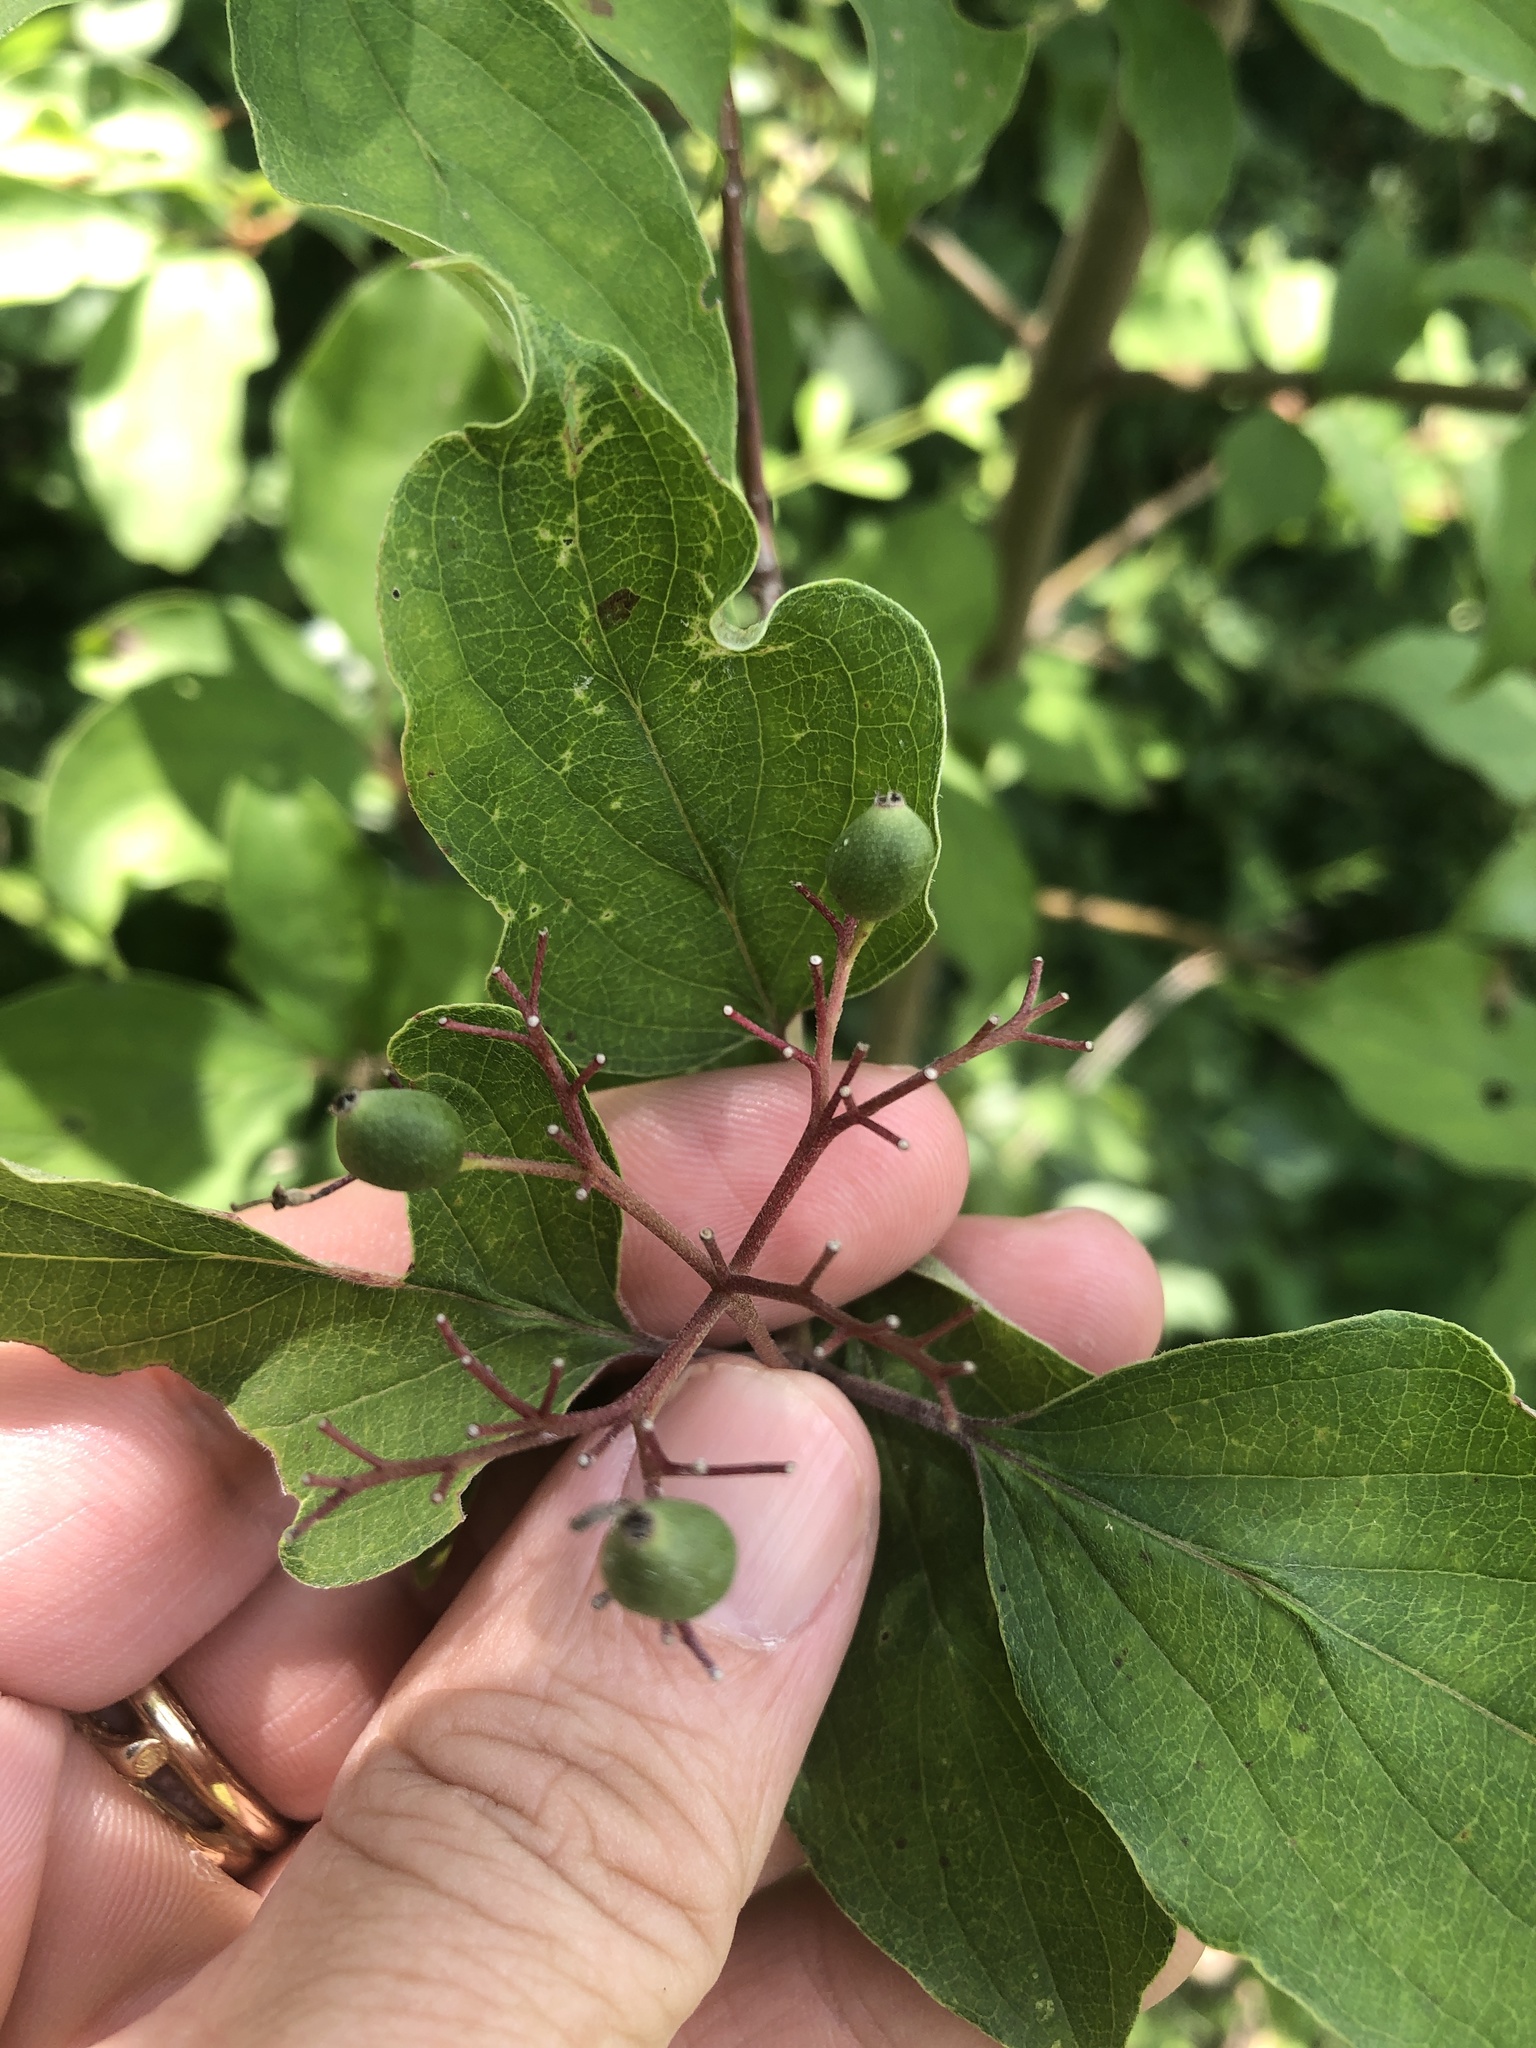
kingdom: Plantae
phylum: Tracheophyta
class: Magnoliopsida
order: Cornales
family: Cornaceae
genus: Cornus
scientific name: Cornus drummondii
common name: Rough-leaf dogwood
